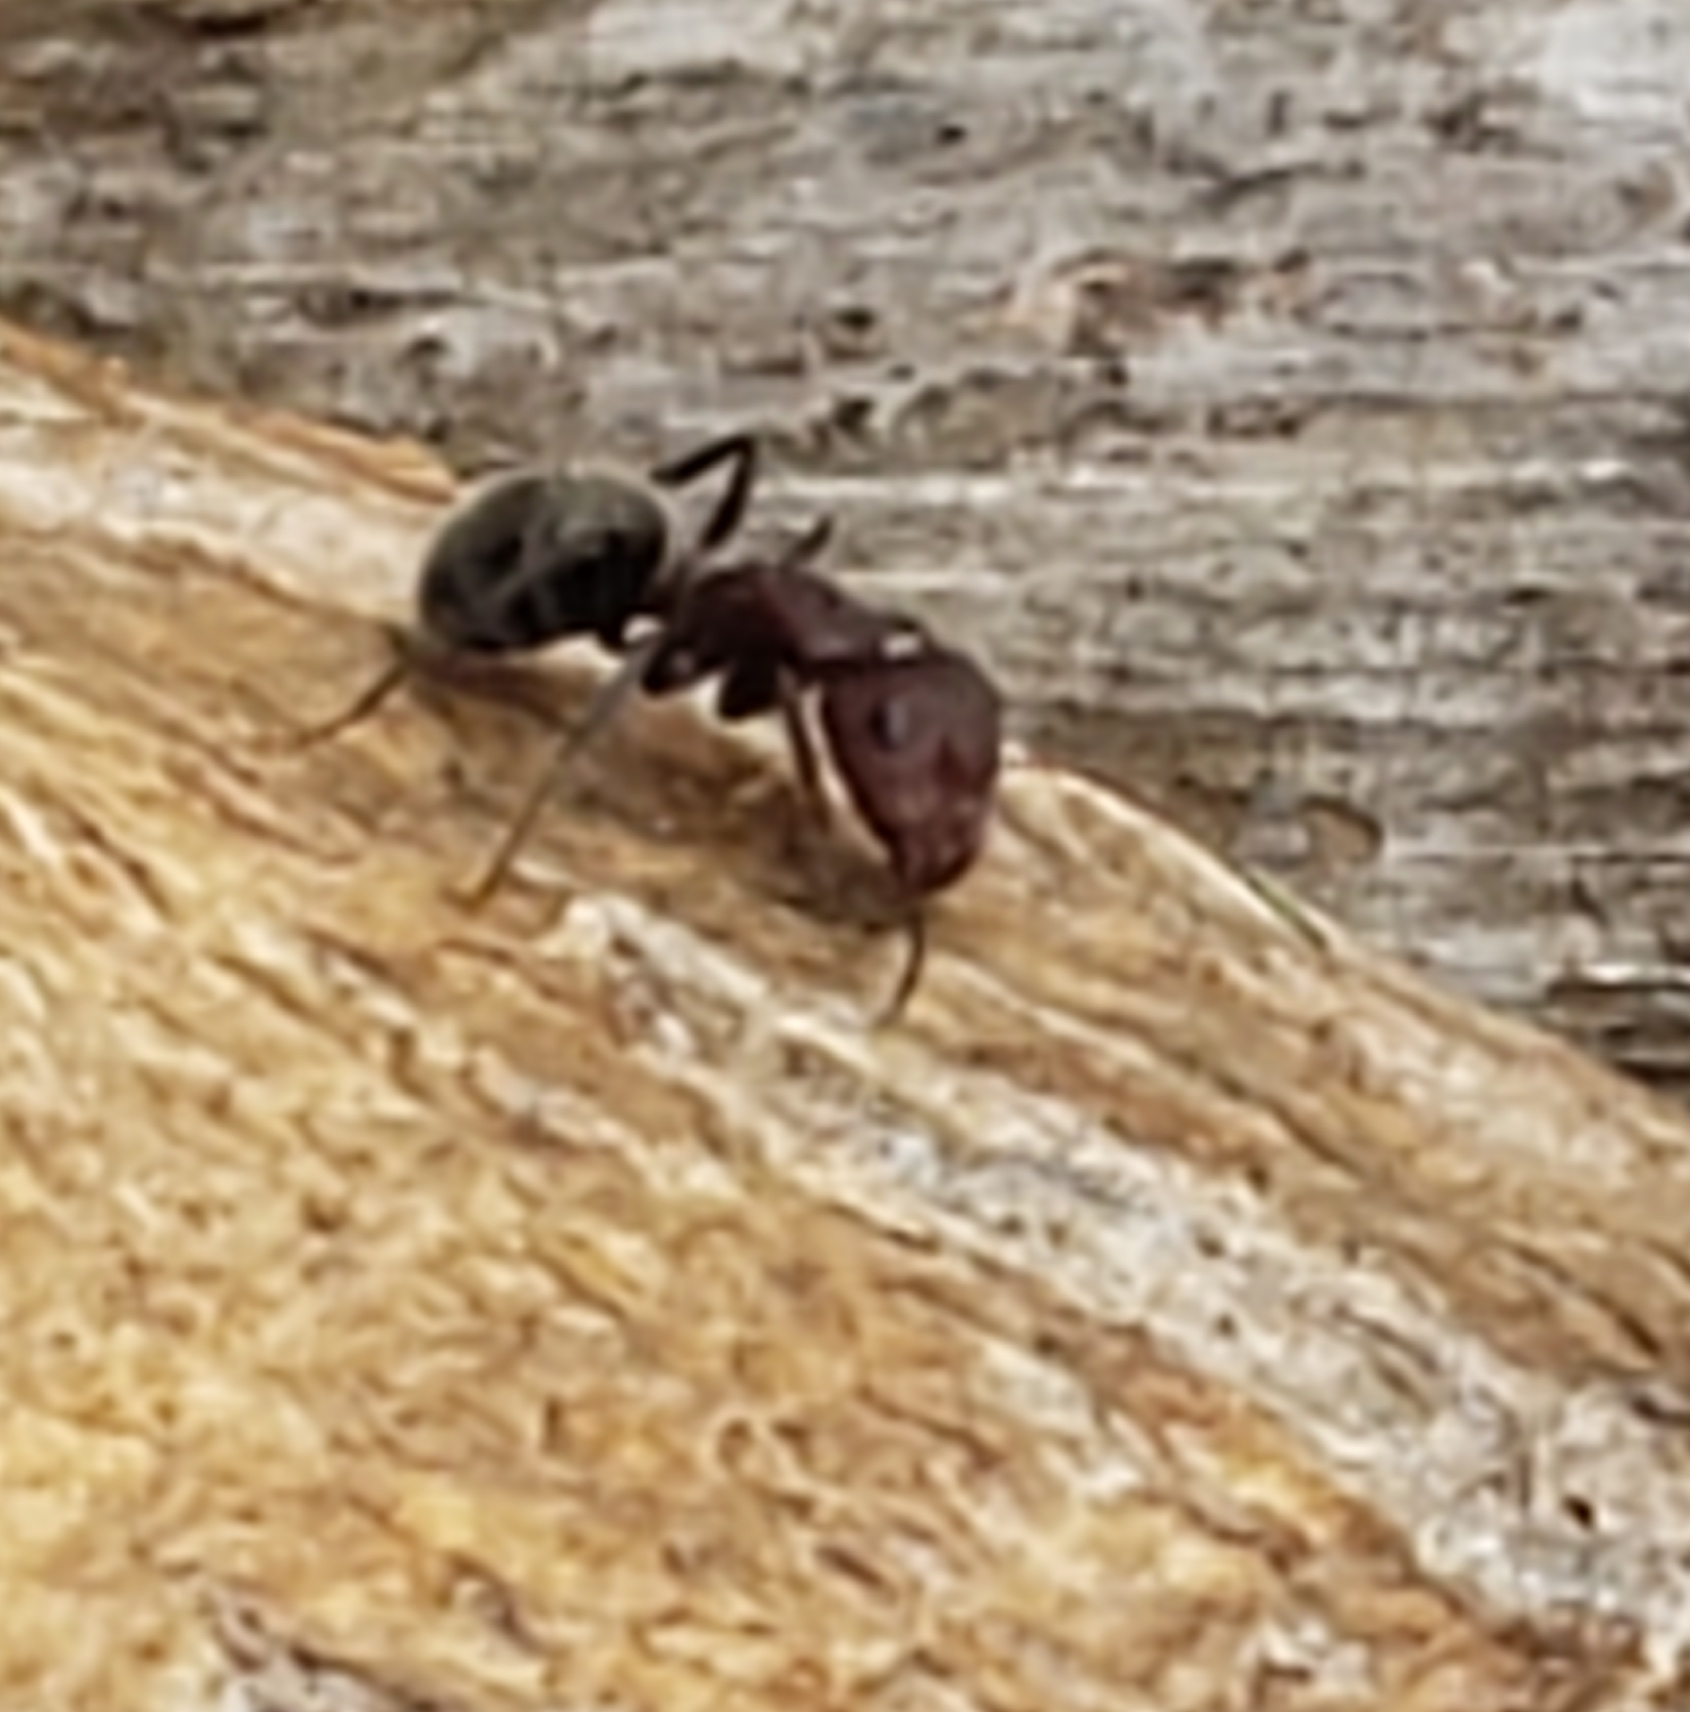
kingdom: Animalia
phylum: Arthropoda
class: Insecta
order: Hymenoptera
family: Formicidae
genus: Camponotus
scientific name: Camponotus planatus
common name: Compact carpenter ant
